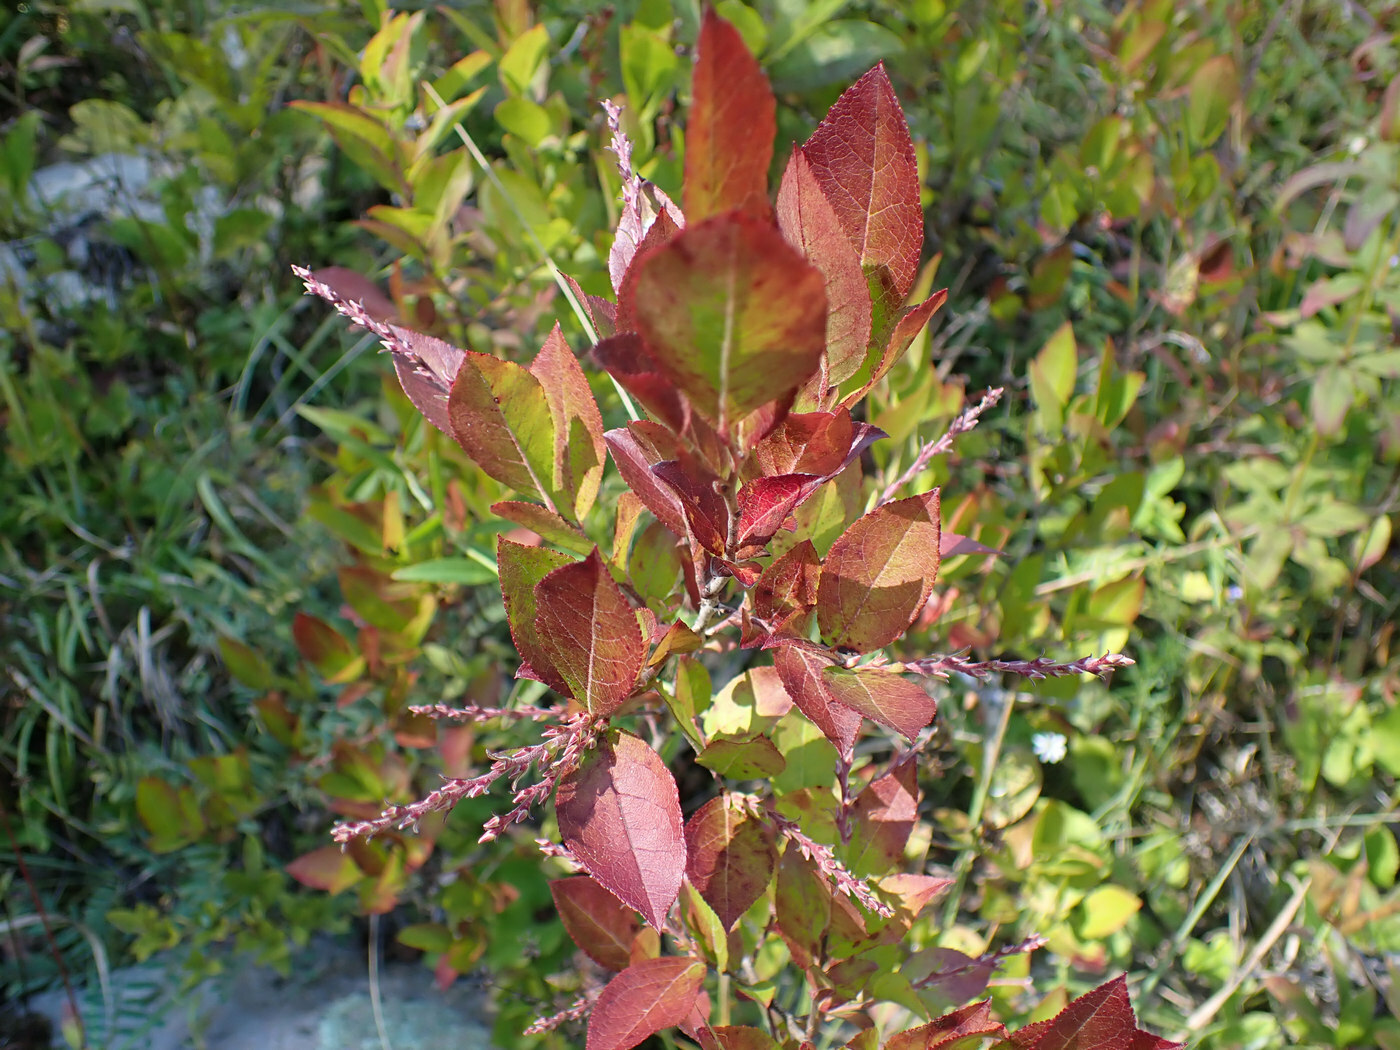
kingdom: Plantae
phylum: Tracheophyta
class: Magnoliopsida
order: Ericales
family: Ericaceae
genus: Eubotrys
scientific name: Eubotrys racemosa
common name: Fetterbush
